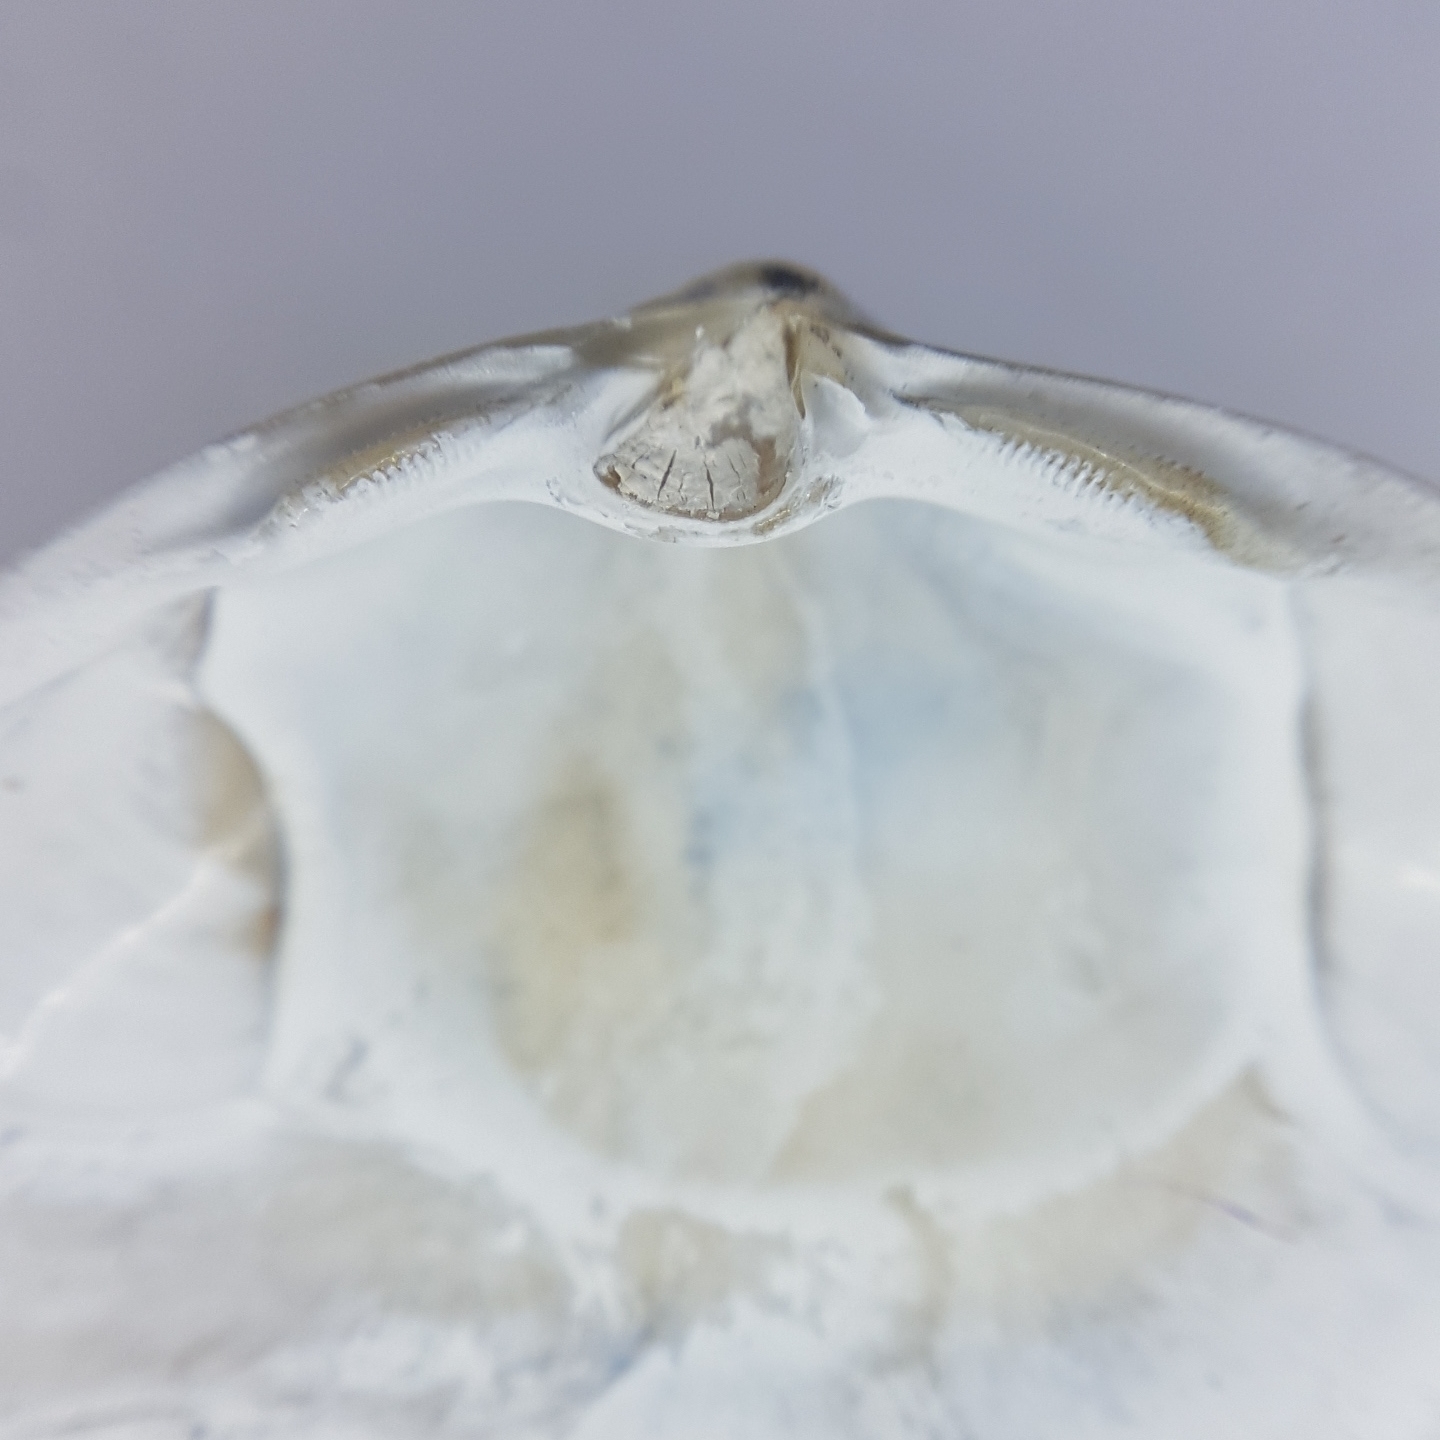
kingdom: Animalia
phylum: Mollusca
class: Bivalvia
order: Venerida
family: Mactridae
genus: Spisula
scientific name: Spisula solida
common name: Thick trough shell
